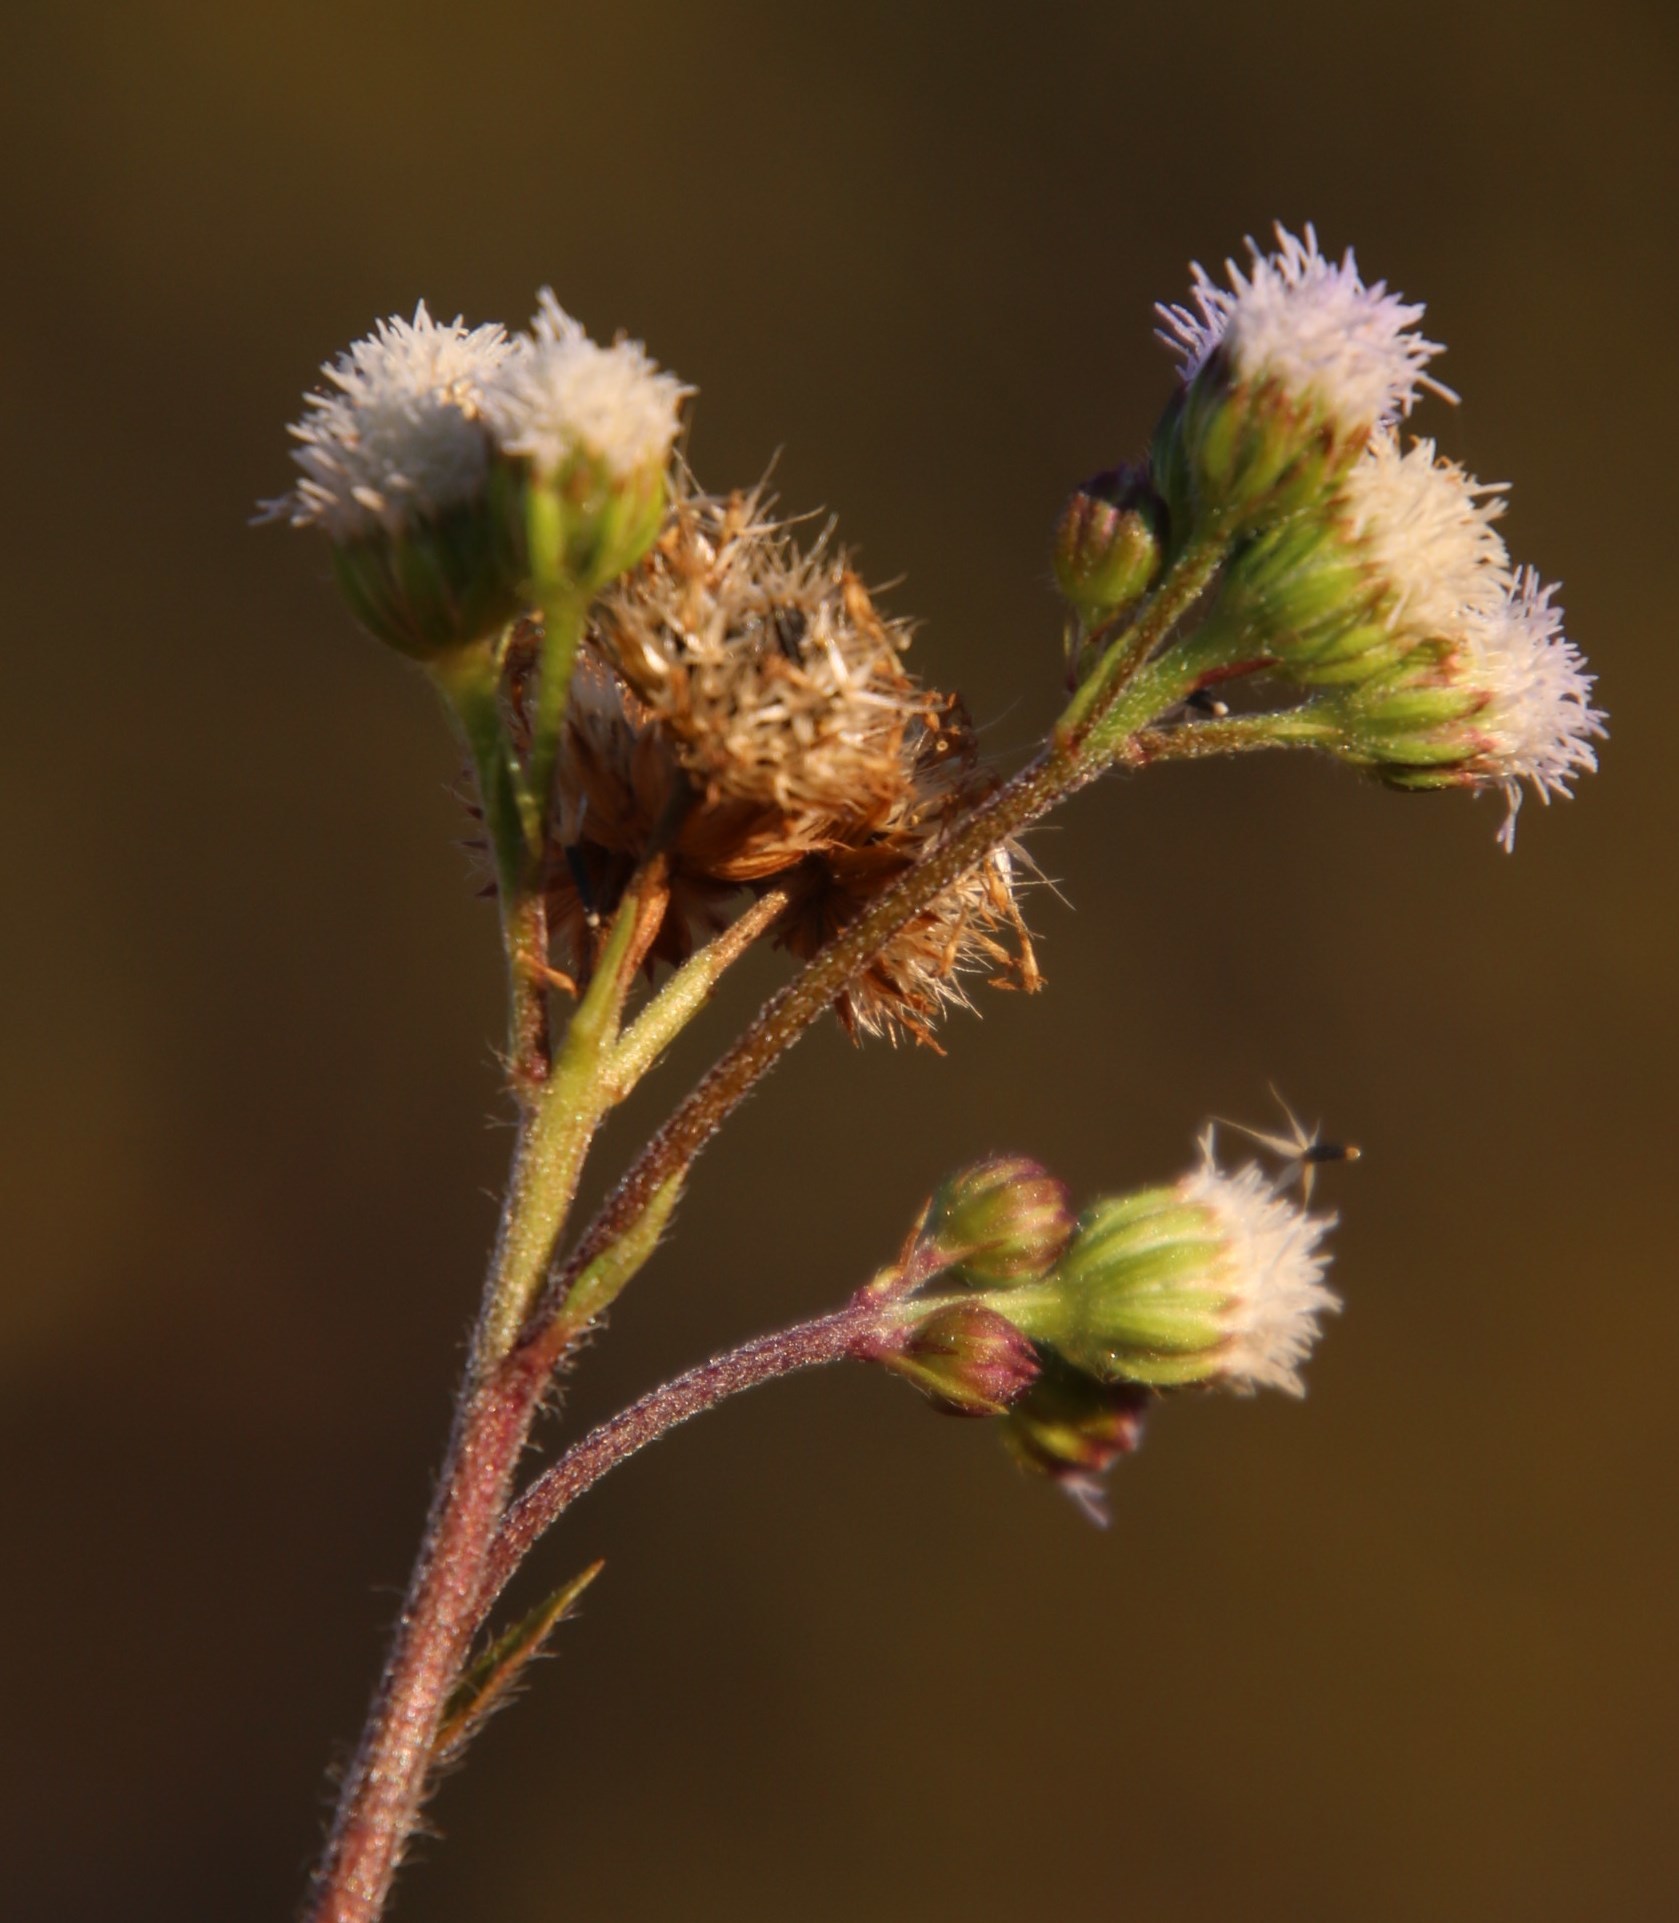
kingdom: Plantae
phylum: Tracheophyta
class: Magnoliopsida
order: Asterales
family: Asteraceae
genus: Ageratum
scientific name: Ageratum conyzoides
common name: Tropical whiteweed
